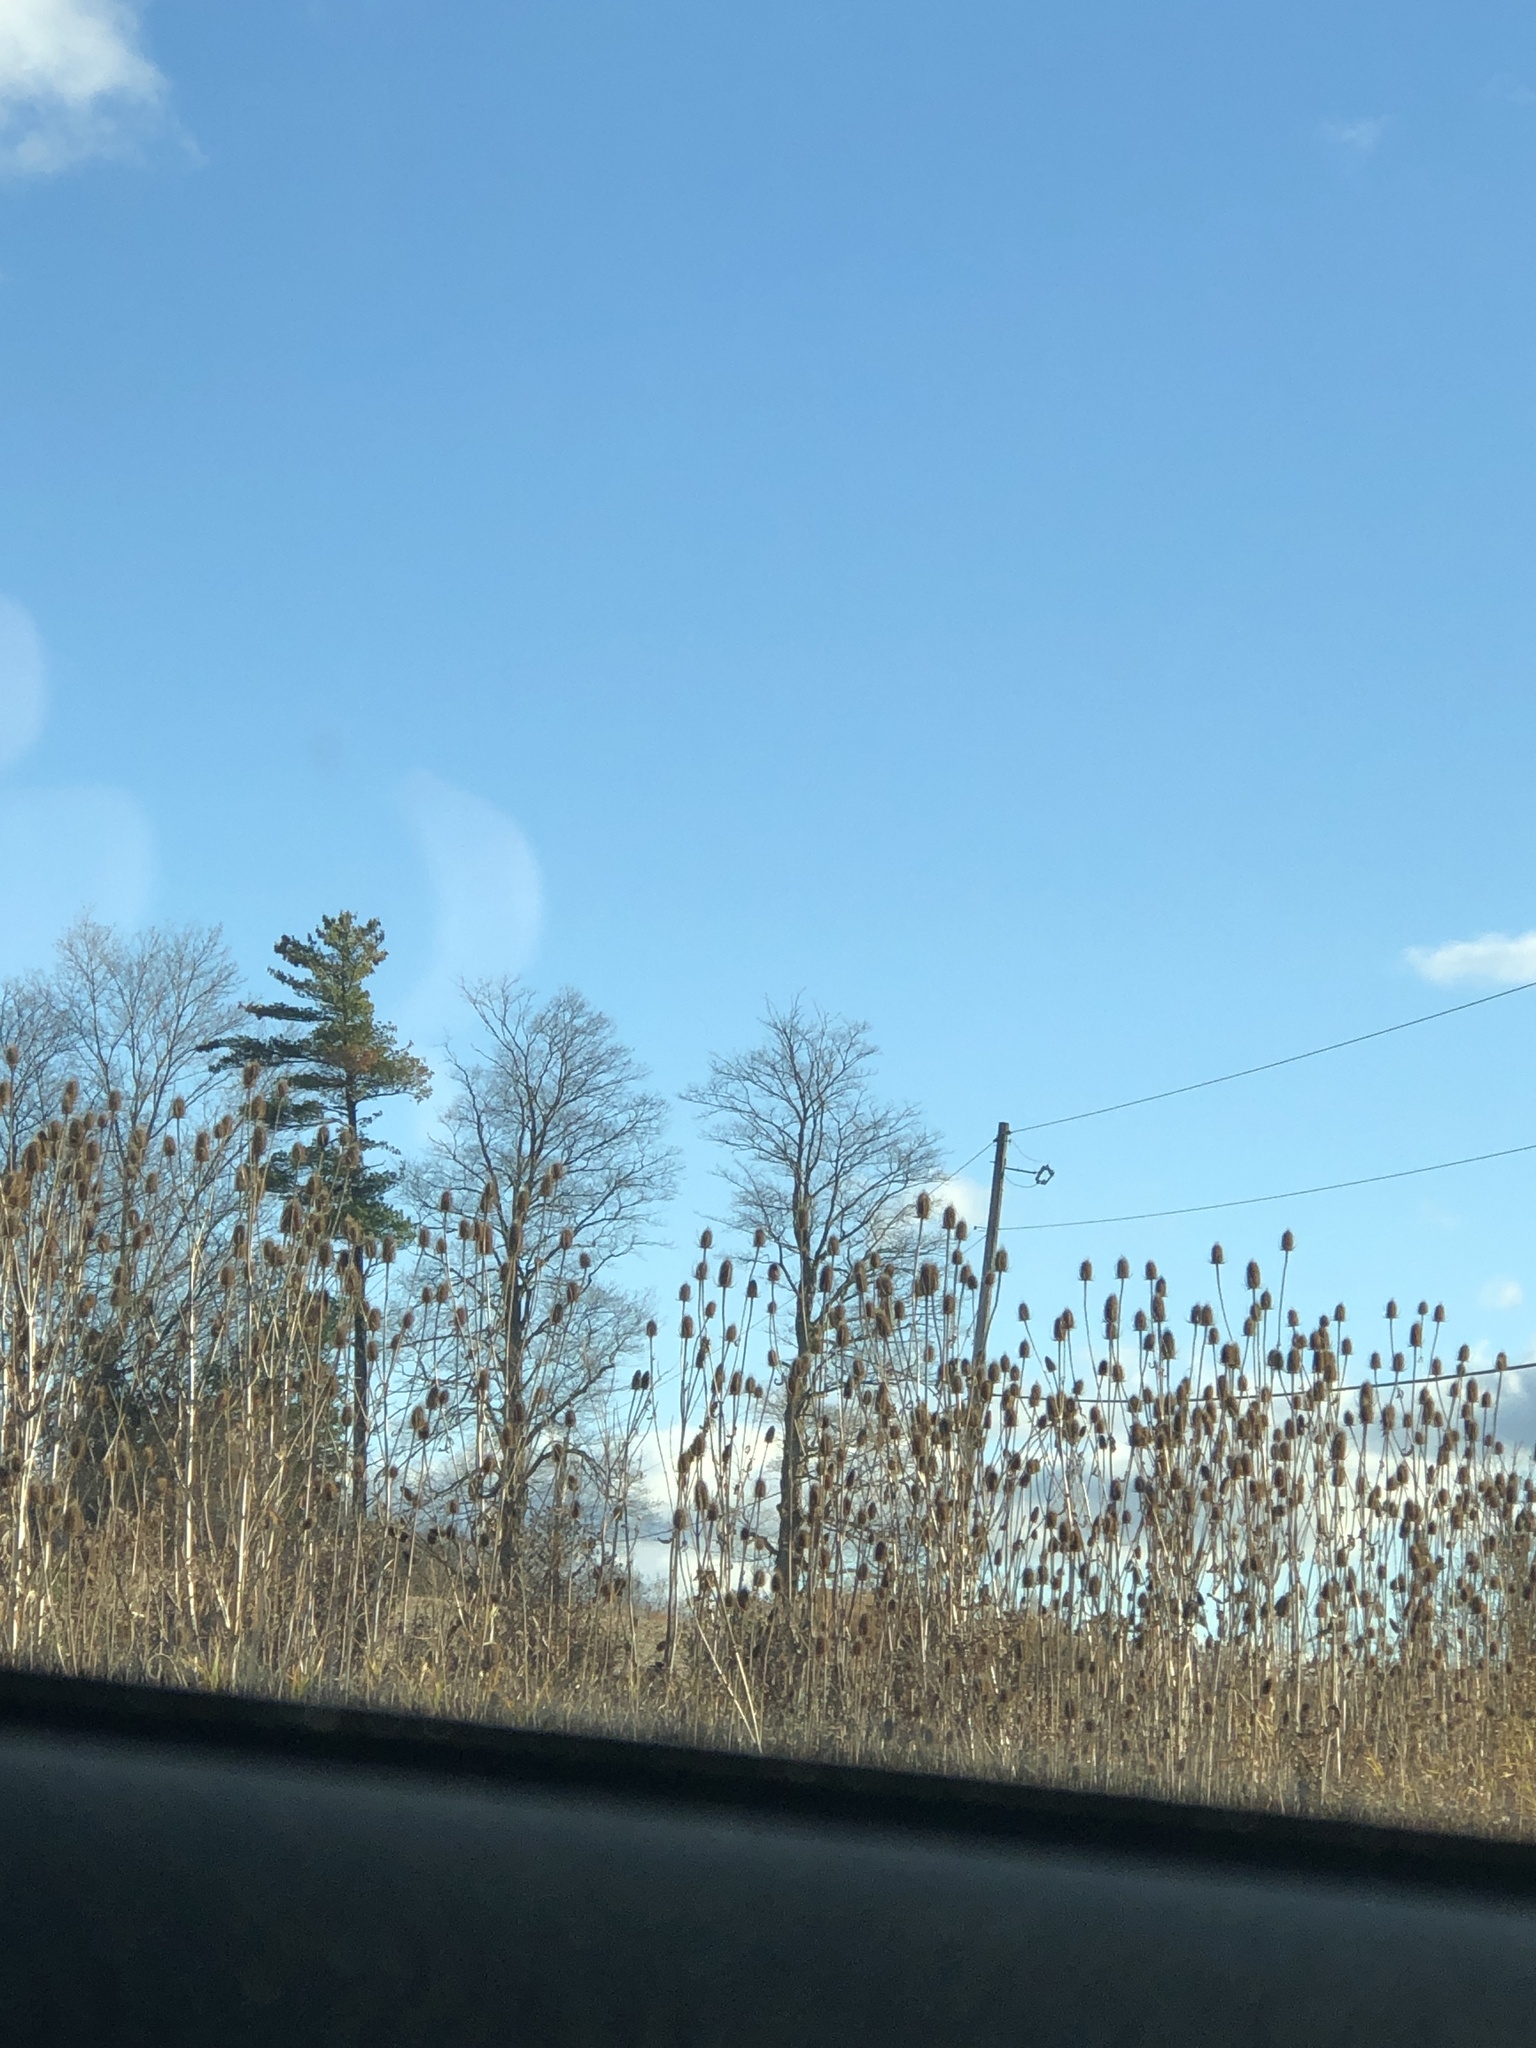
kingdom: Plantae
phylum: Tracheophyta
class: Magnoliopsida
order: Dipsacales
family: Caprifoliaceae
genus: Dipsacus
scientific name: Dipsacus fullonum
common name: Teasel
